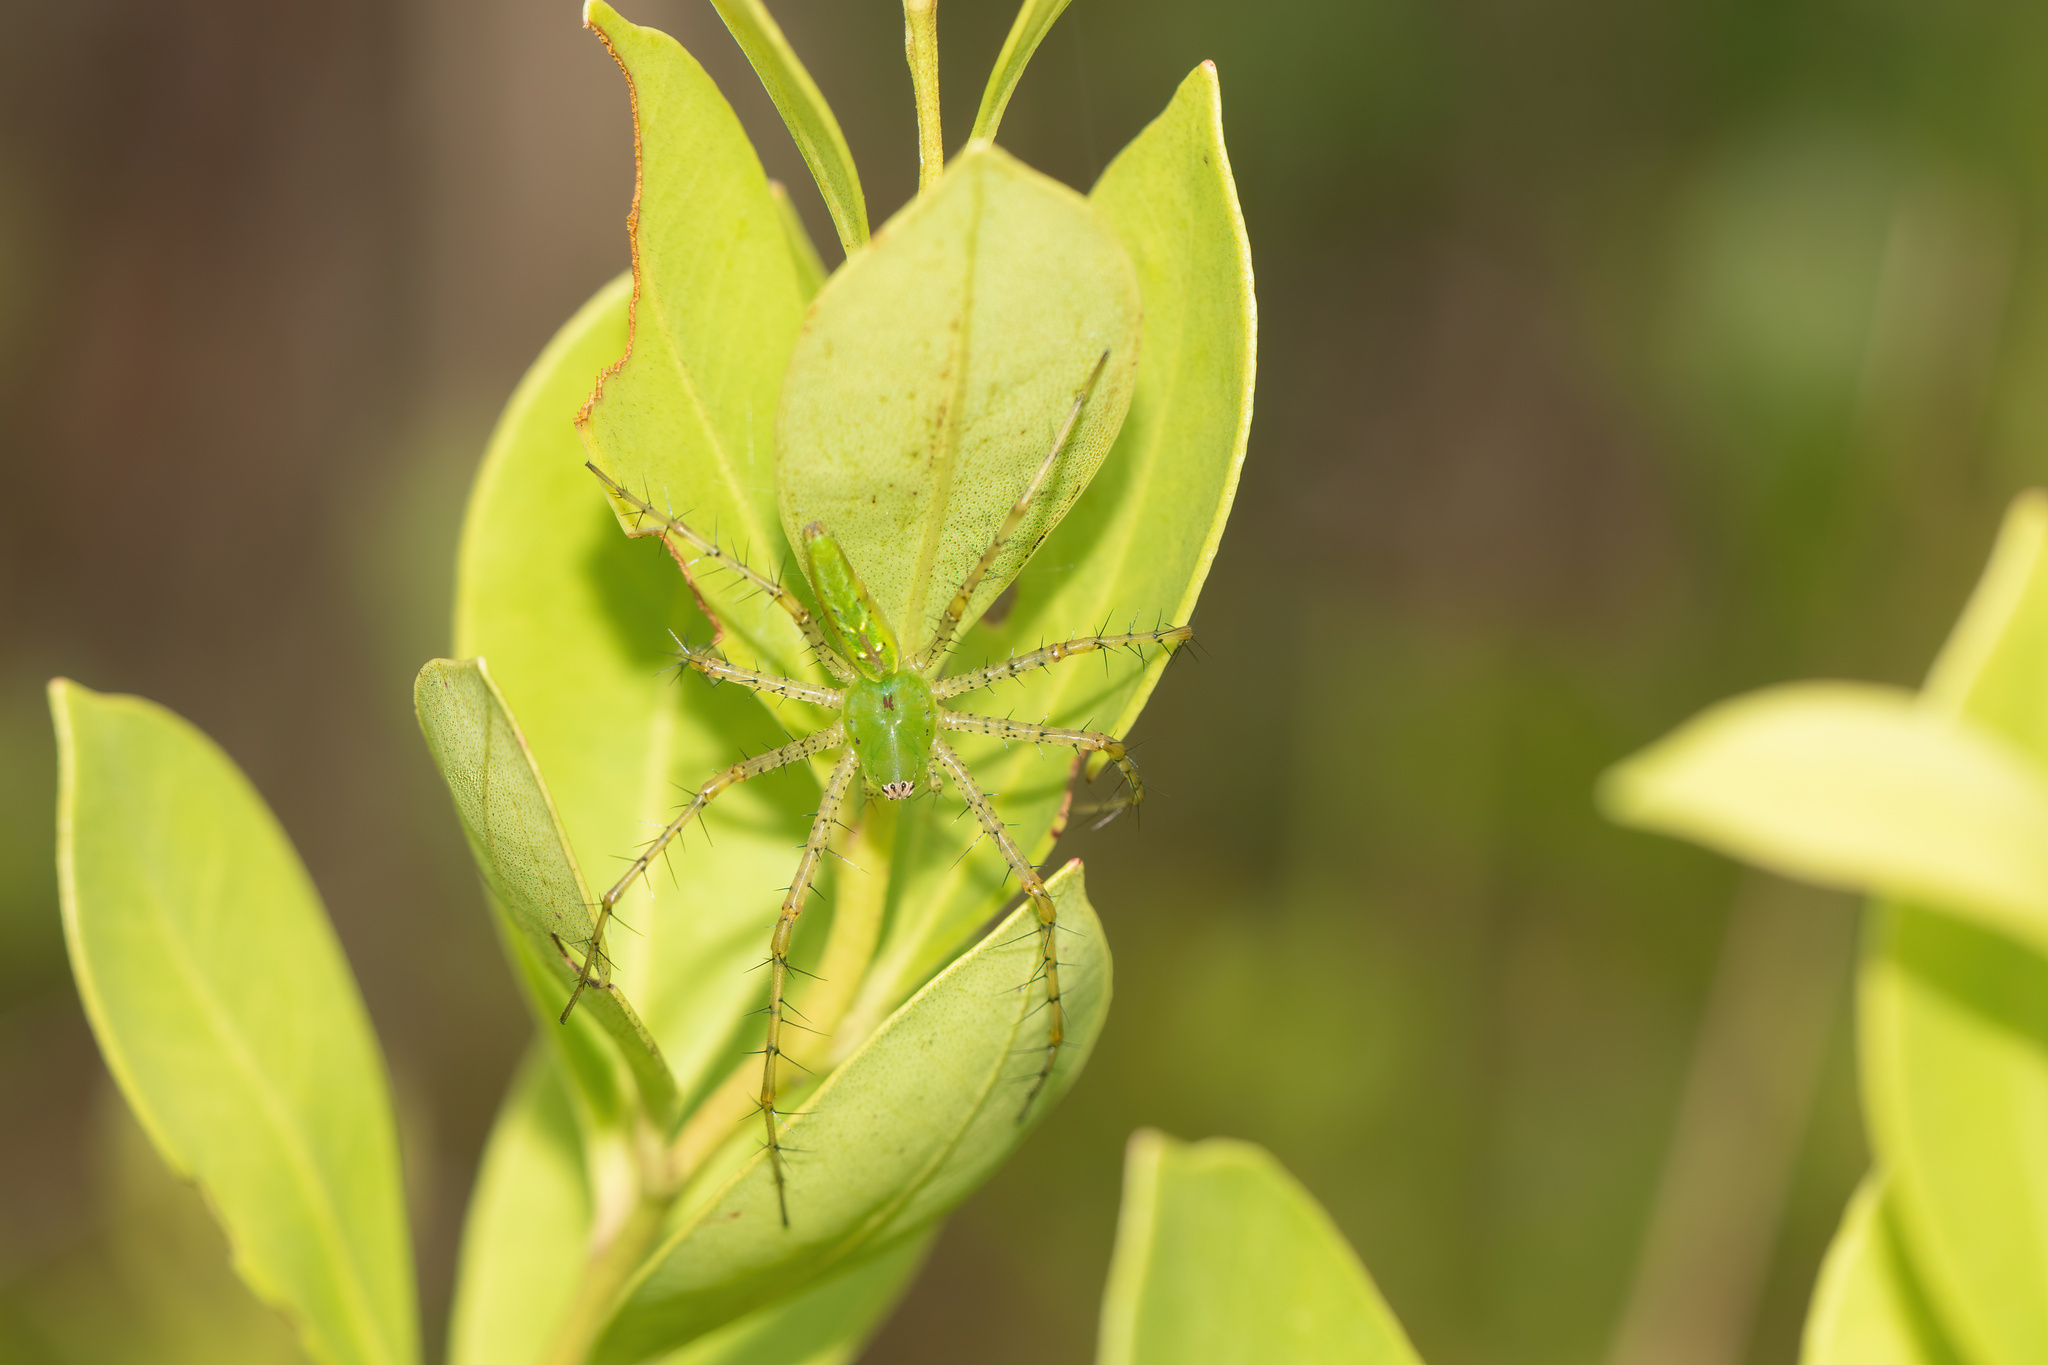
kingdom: Animalia
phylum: Arthropoda
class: Arachnida
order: Araneae
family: Oxyopidae
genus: Peucetia
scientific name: Peucetia viridans
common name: Lynx spiders
